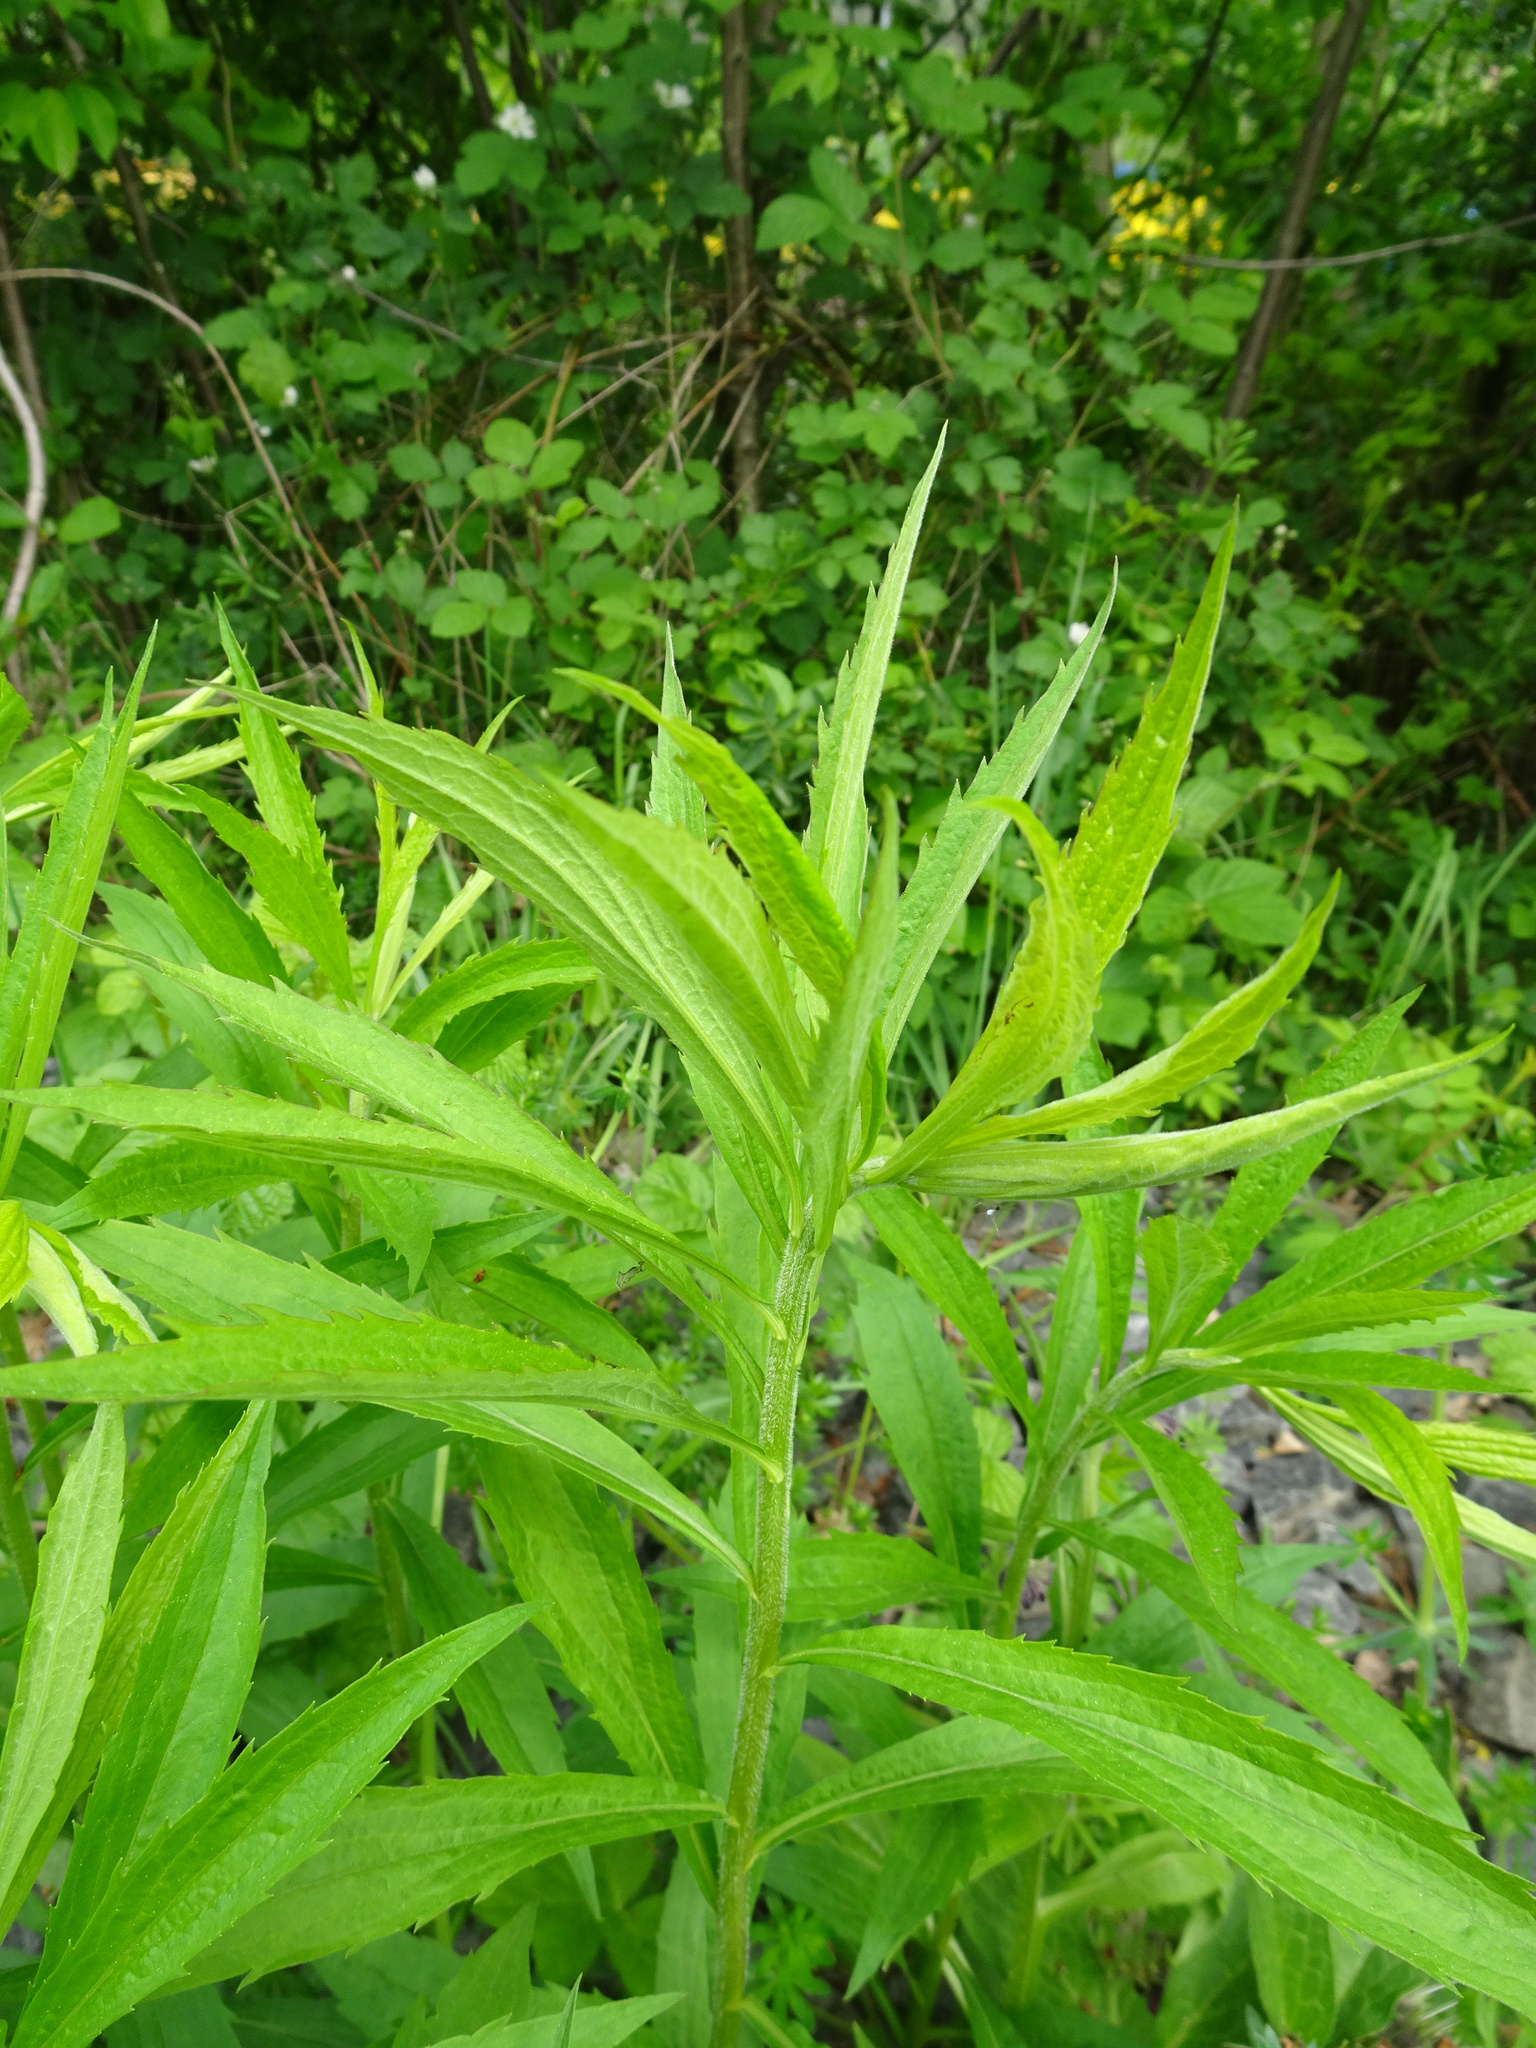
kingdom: Plantae
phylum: Tracheophyta
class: Magnoliopsida
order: Asterales
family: Asteraceae
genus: Solidago
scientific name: Solidago canadensis
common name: Canada goldenrod
